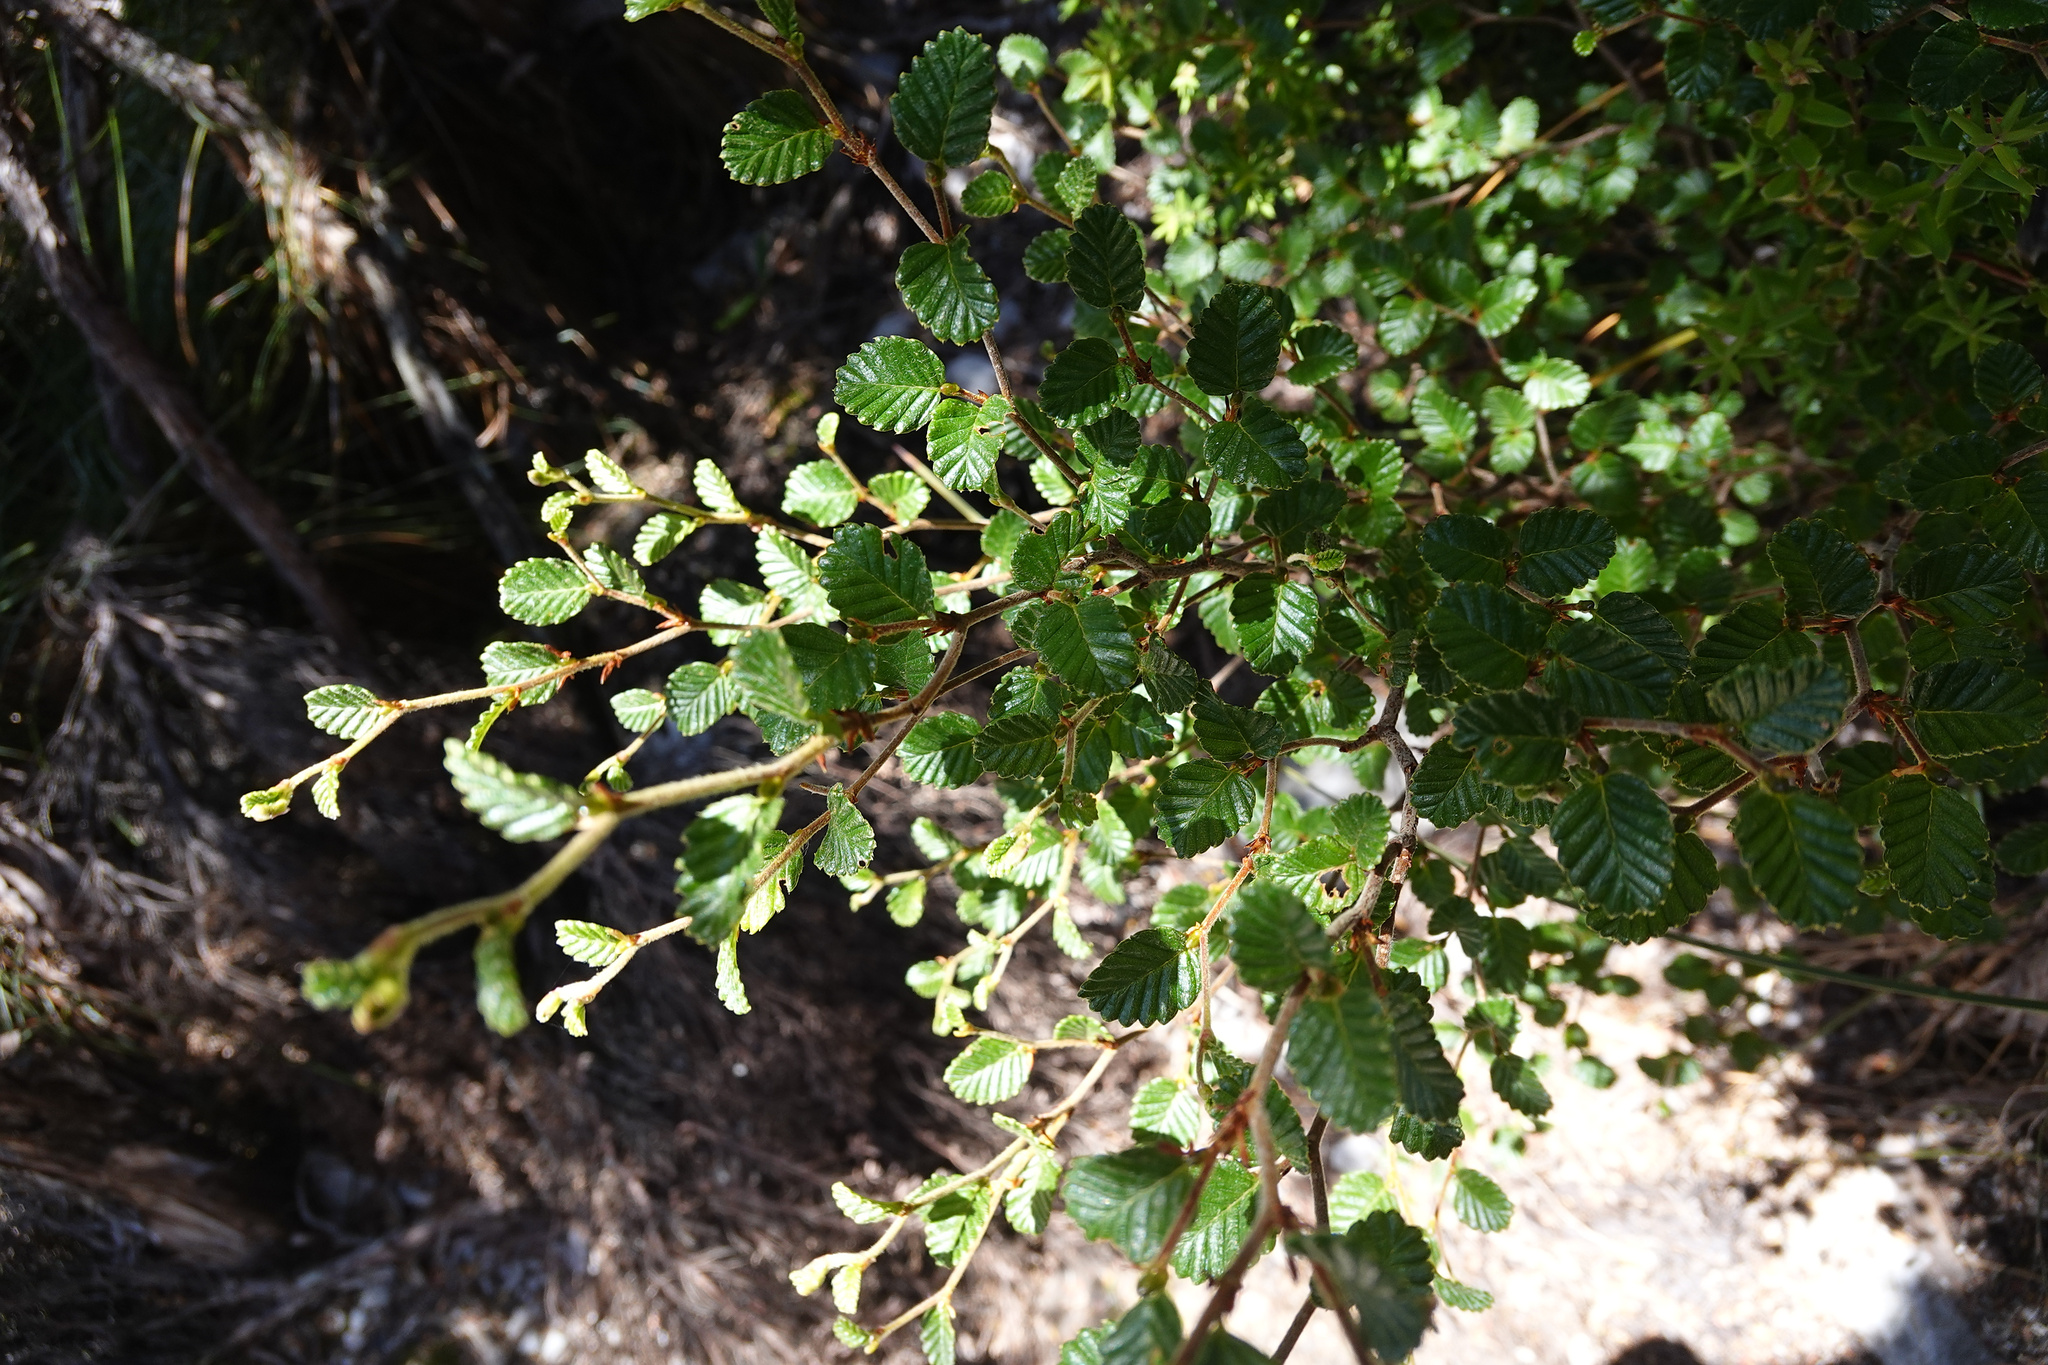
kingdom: Plantae
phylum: Tracheophyta
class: Magnoliopsida
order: Fagales
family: Nothofagaceae
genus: Nothofagus
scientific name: Nothofagus gunnii
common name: Tanglefoot
